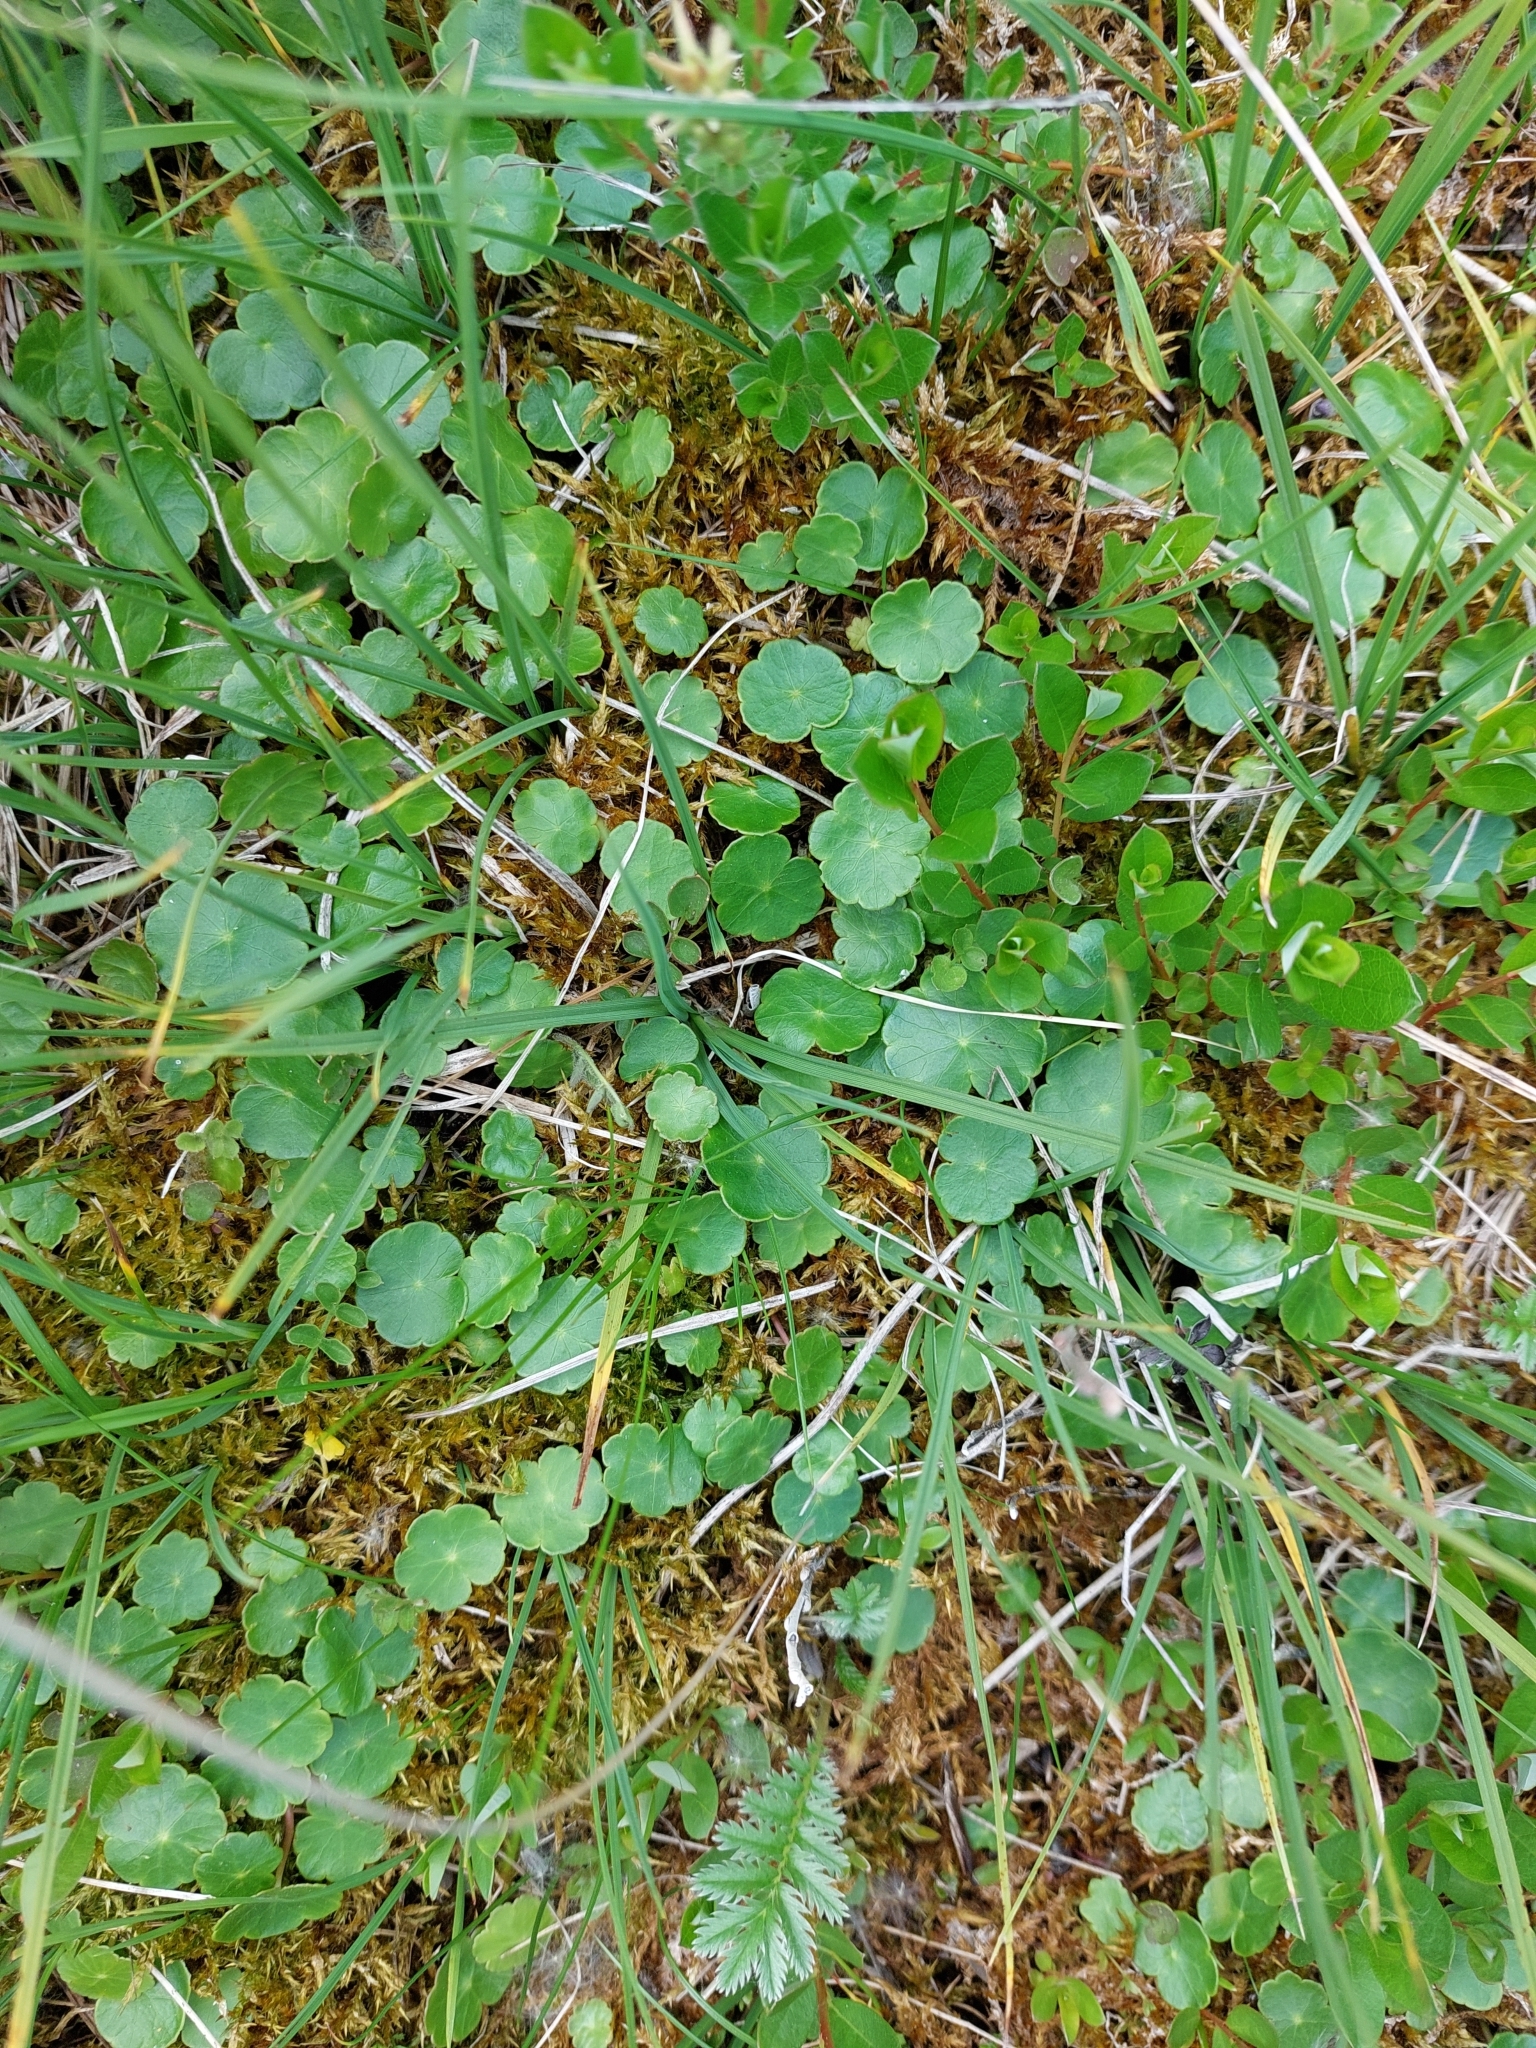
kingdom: Plantae
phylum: Tracheophyta
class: Magnoliopsida
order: Apiales
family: Araliaceae
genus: Hydrocotyle
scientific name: Hydrocotyle vulgaris
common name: Marsh pennywort
